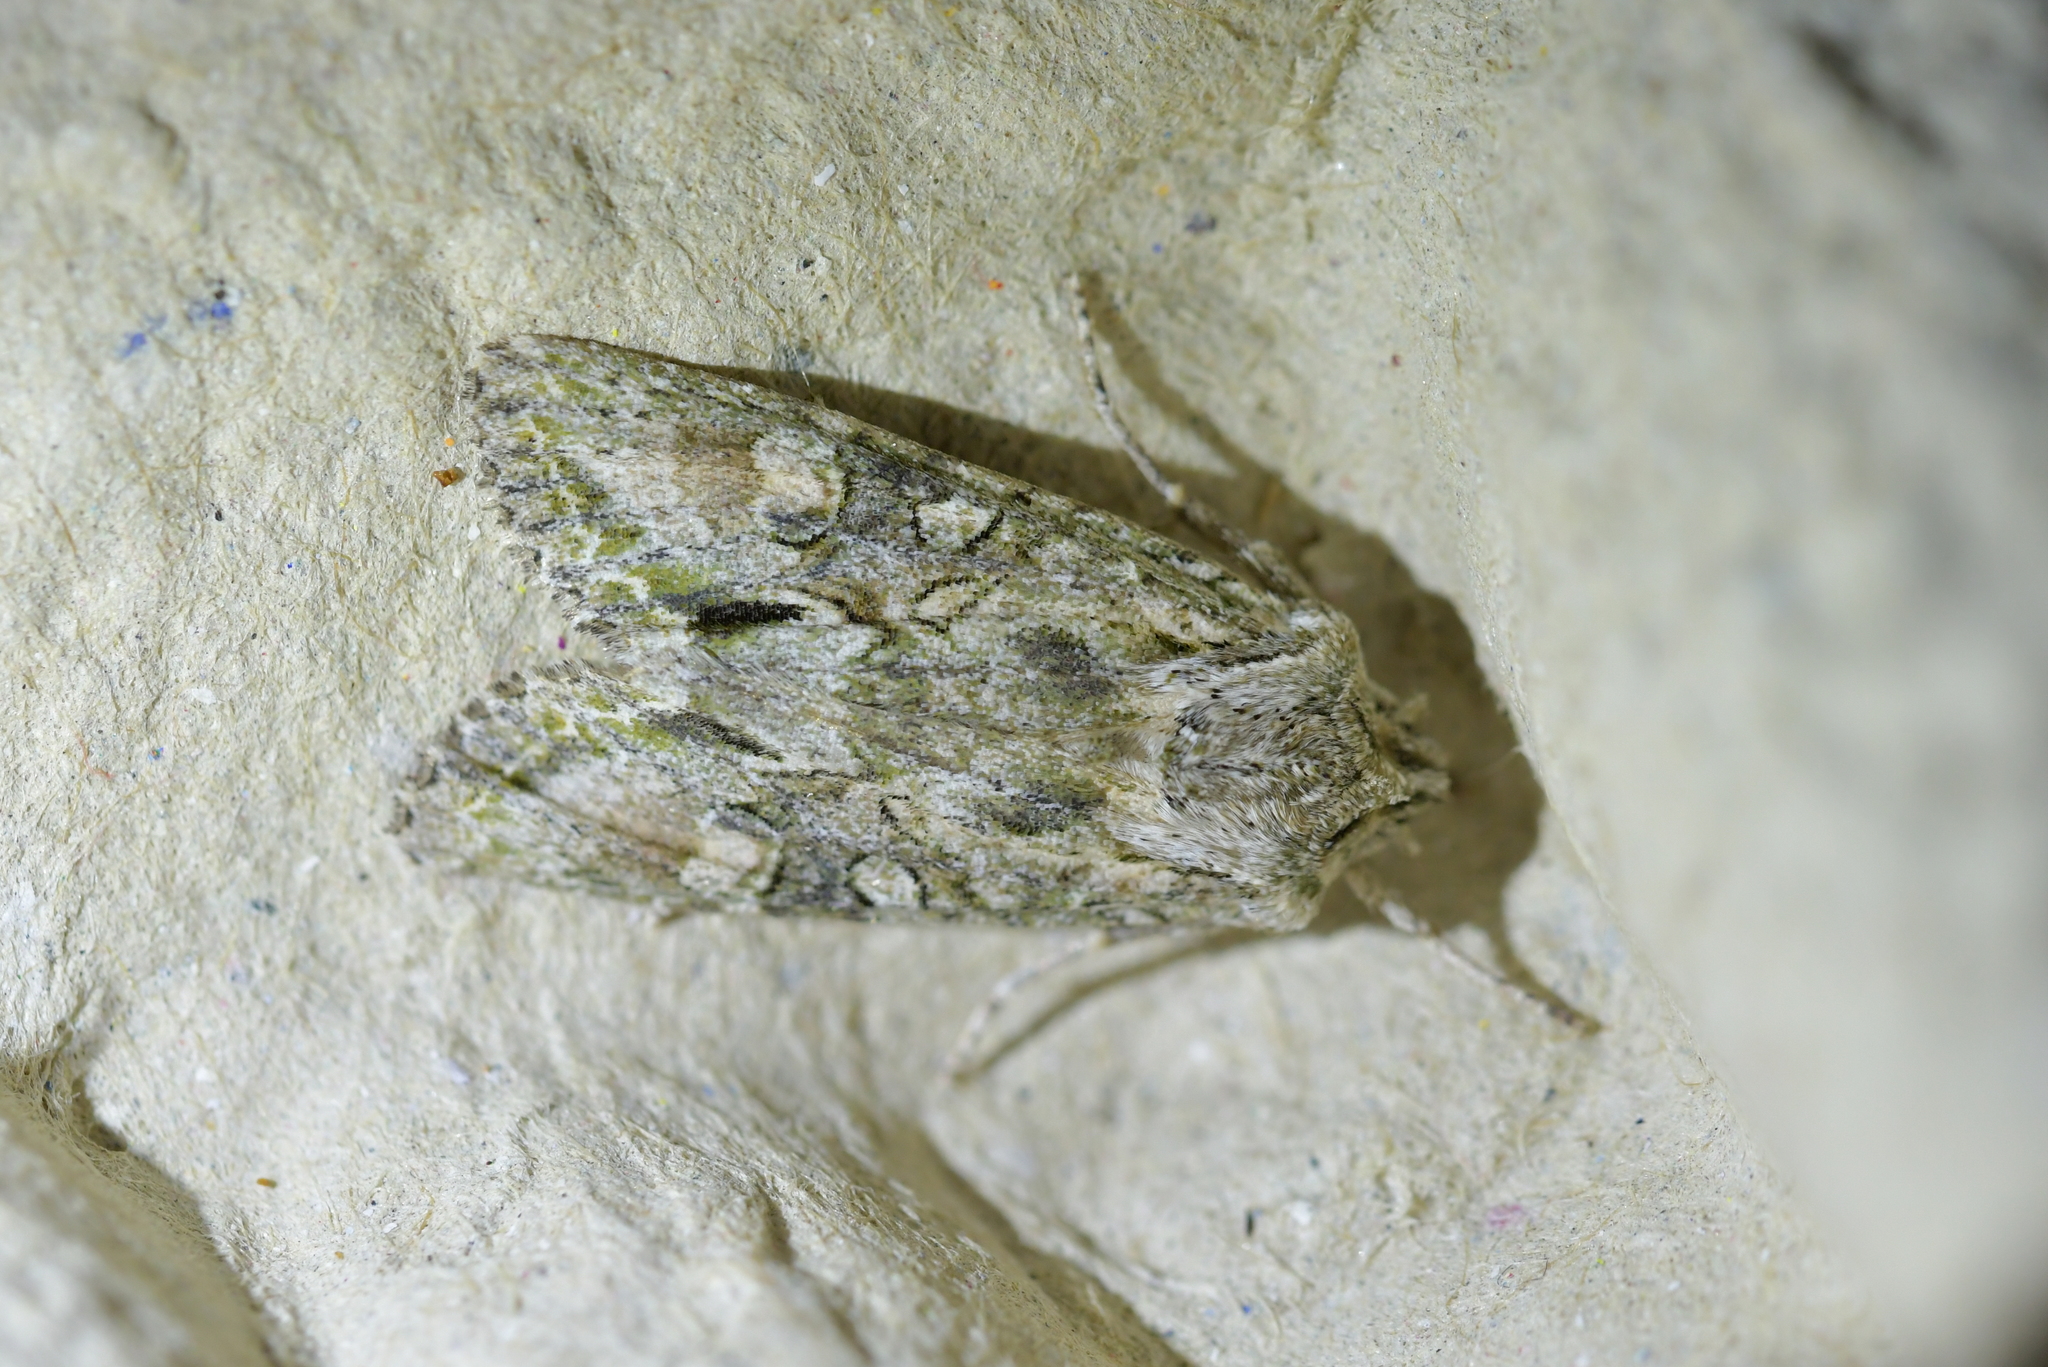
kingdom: Animalia
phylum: Arthropoda
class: Insecta
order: Lepidoptera
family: Noctuidae
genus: Ichneutica
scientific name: Ichneutica mutans
